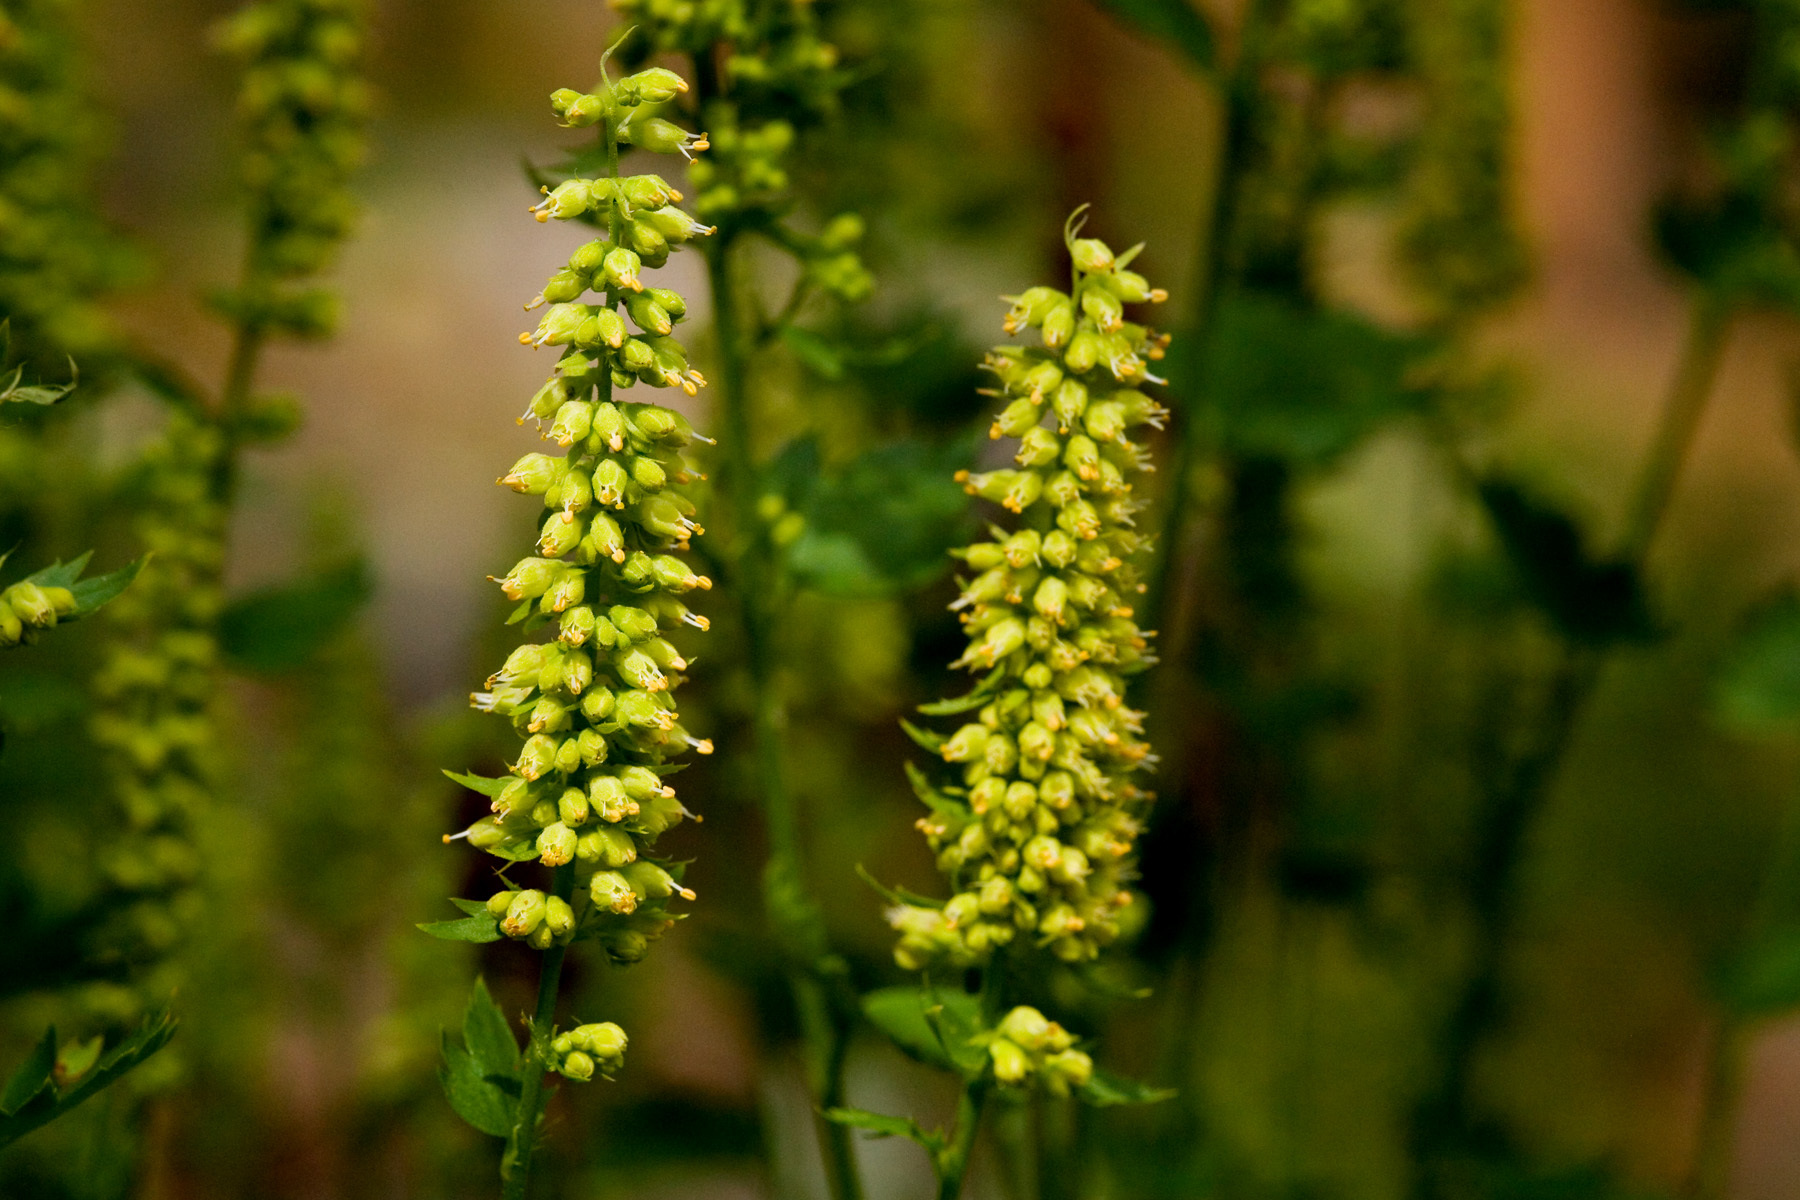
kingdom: Plantae
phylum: Tracheophyta
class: Magnoliopsida
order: Saxifragales
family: Saxifragaceae
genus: Heuchera
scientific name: Heuchera bracteata
